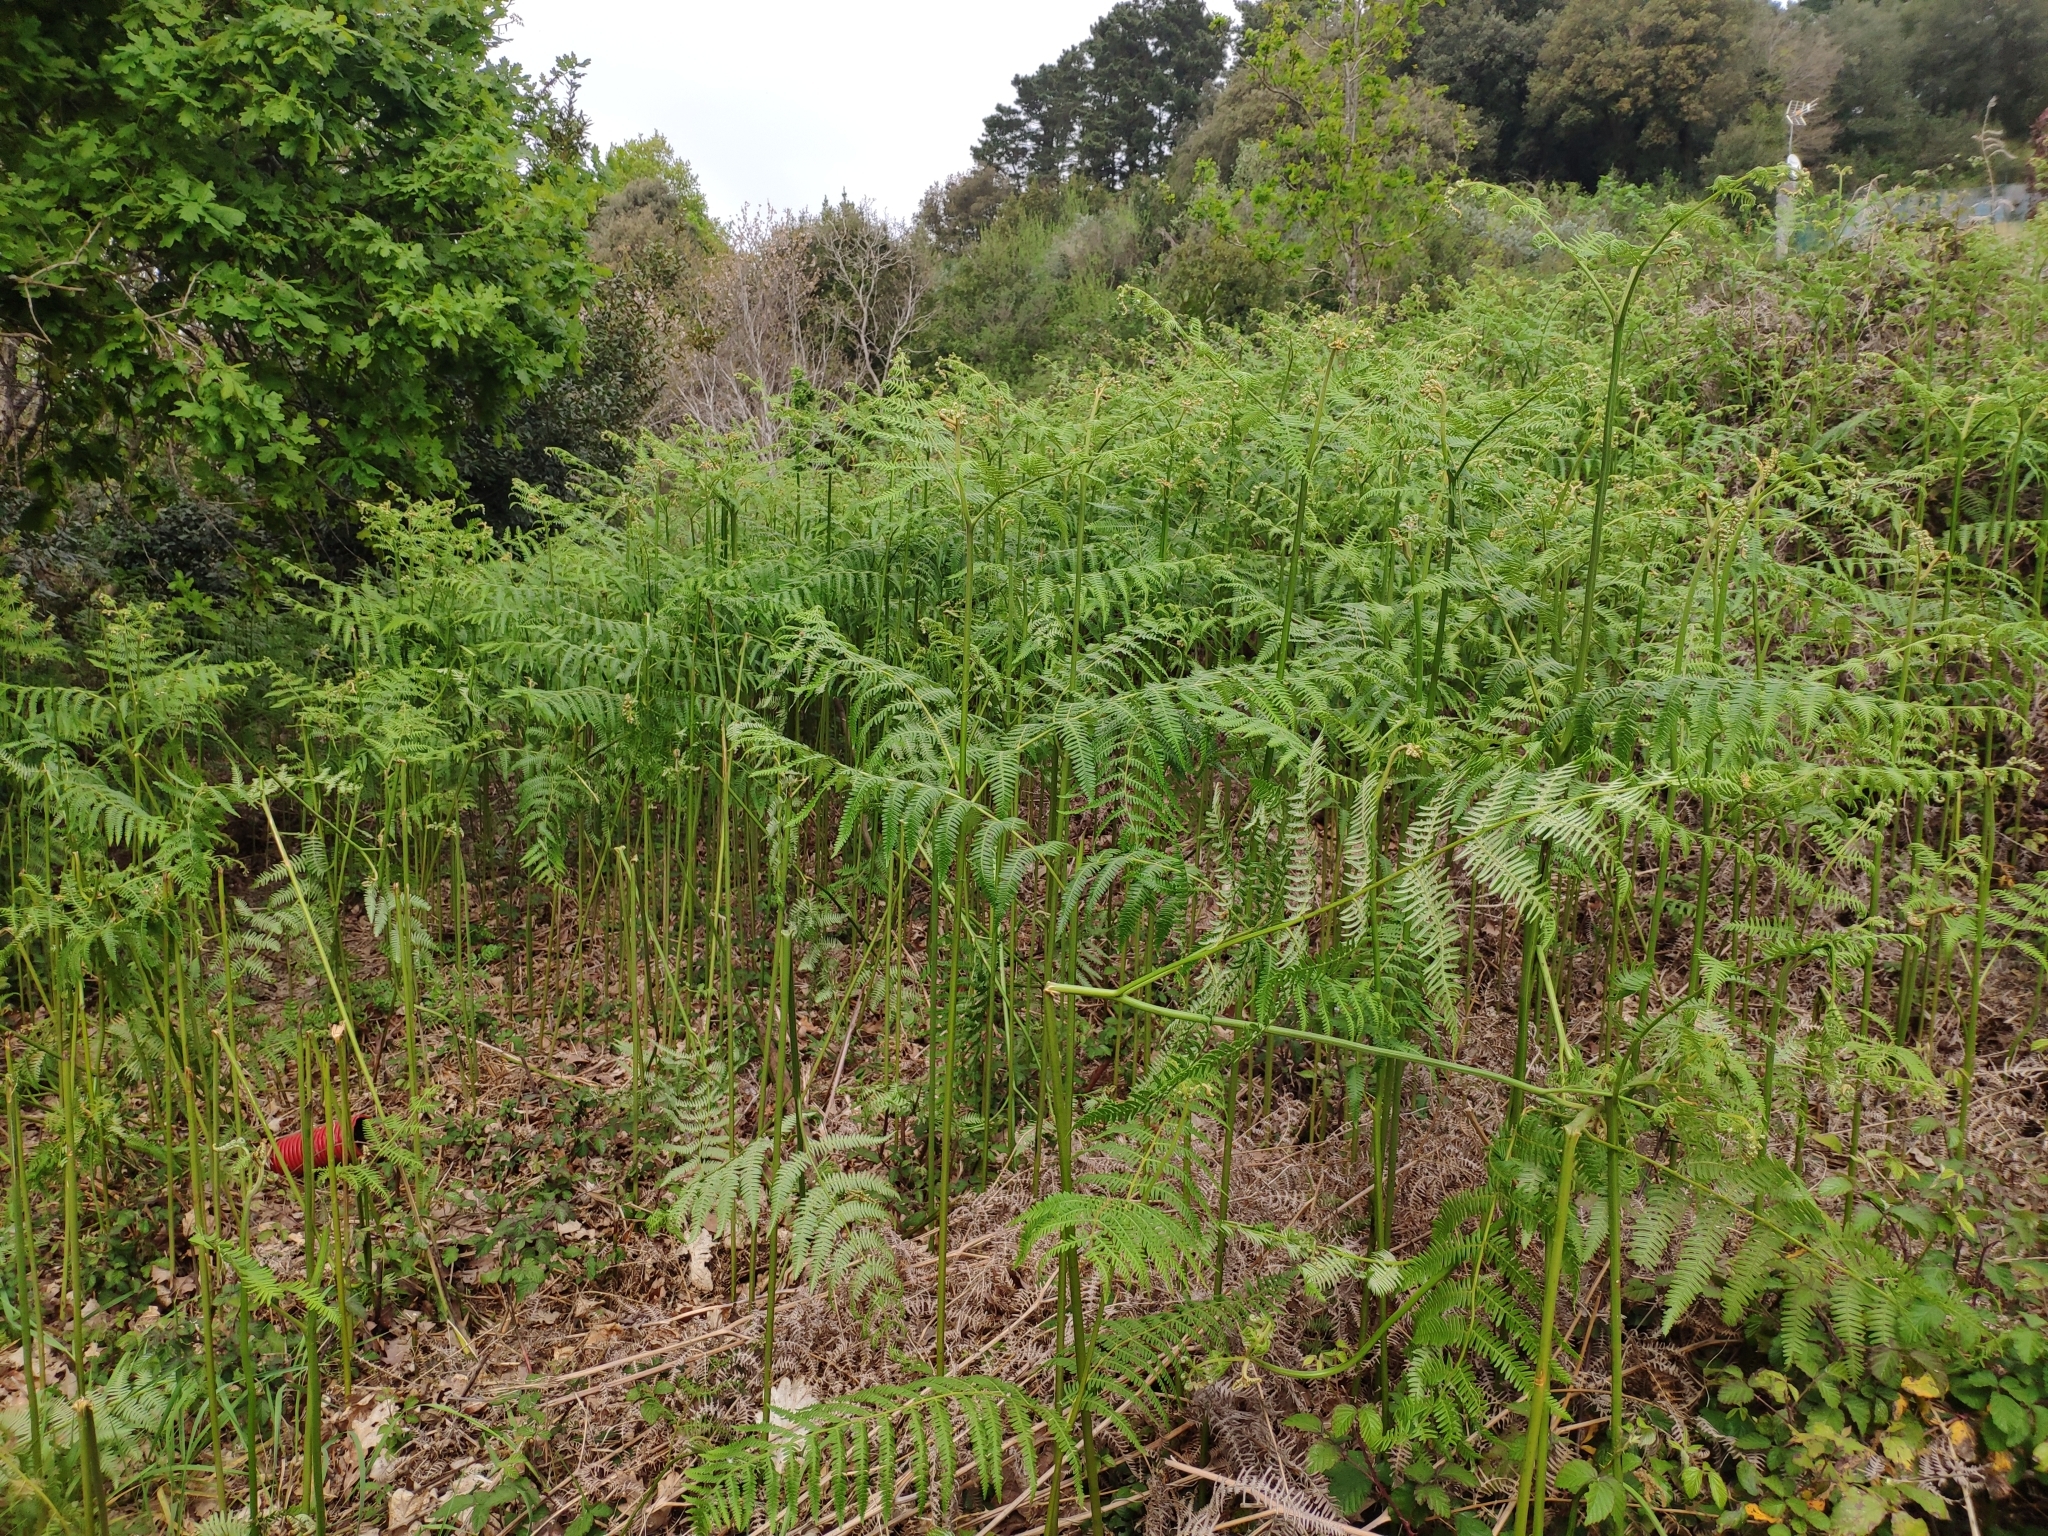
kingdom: Plantae
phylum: Tracheophyta
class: Polypodiopsida
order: Polypodiales
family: Dennstaedtiaceae
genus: Pteridium
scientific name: Pteridium aquilinum
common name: Bracken
